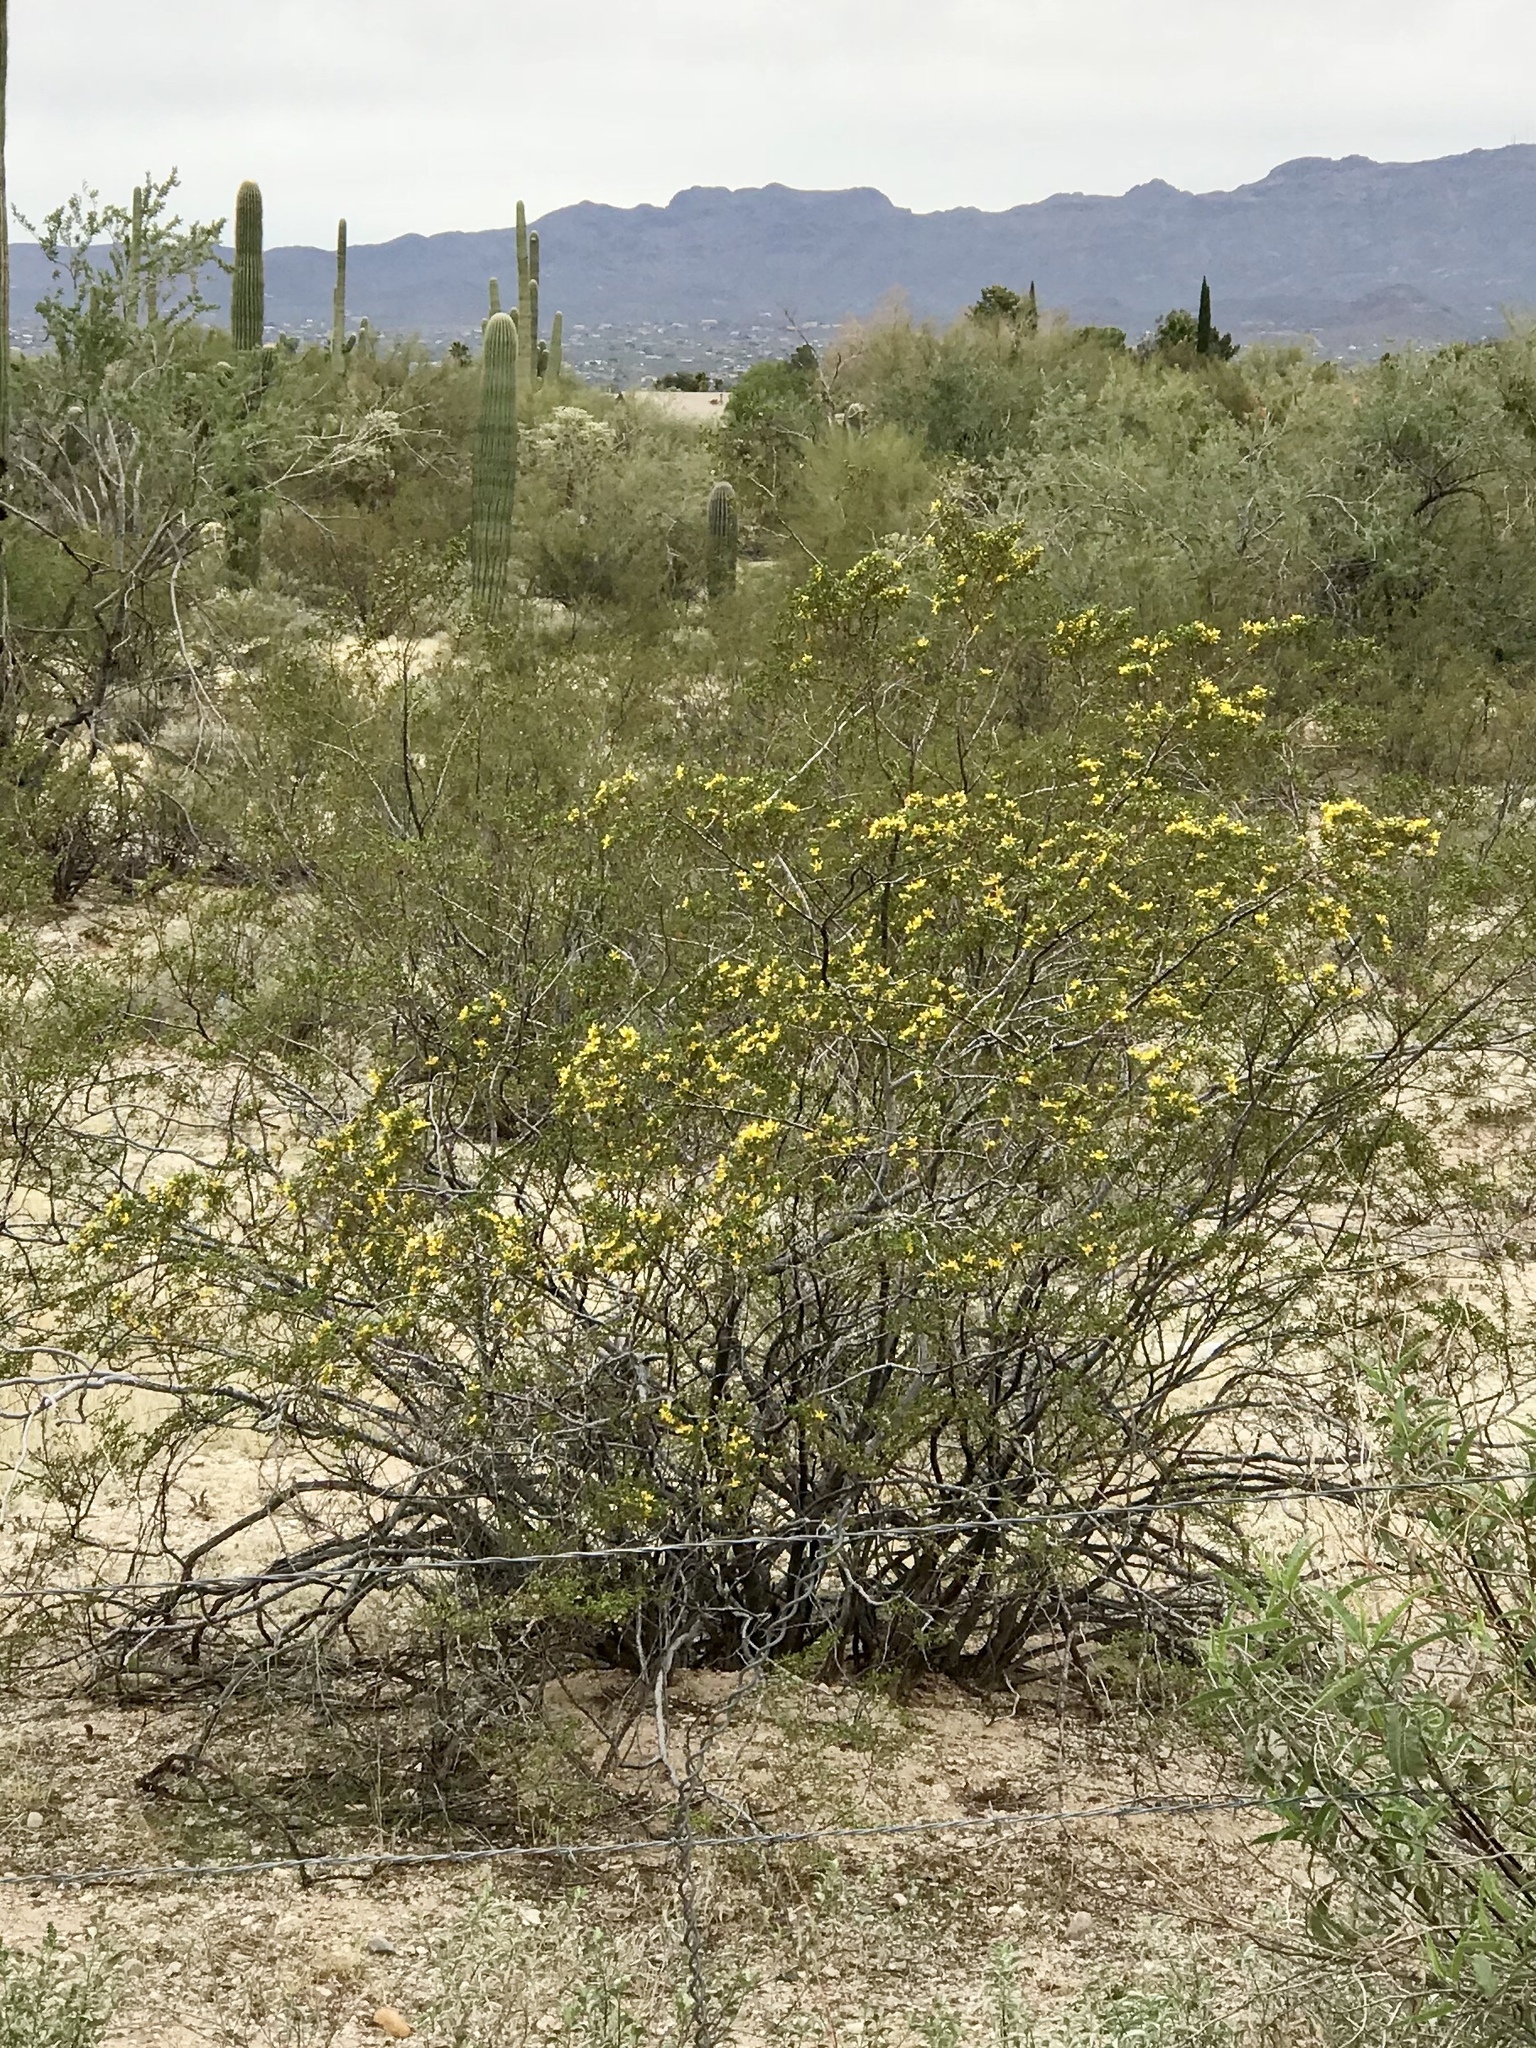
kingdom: Plantae
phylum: Tracheophyta
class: Magnoliopsida
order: Zygophyllales
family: Zygophyllaceae
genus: Larrea
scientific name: Larrea tridentata
